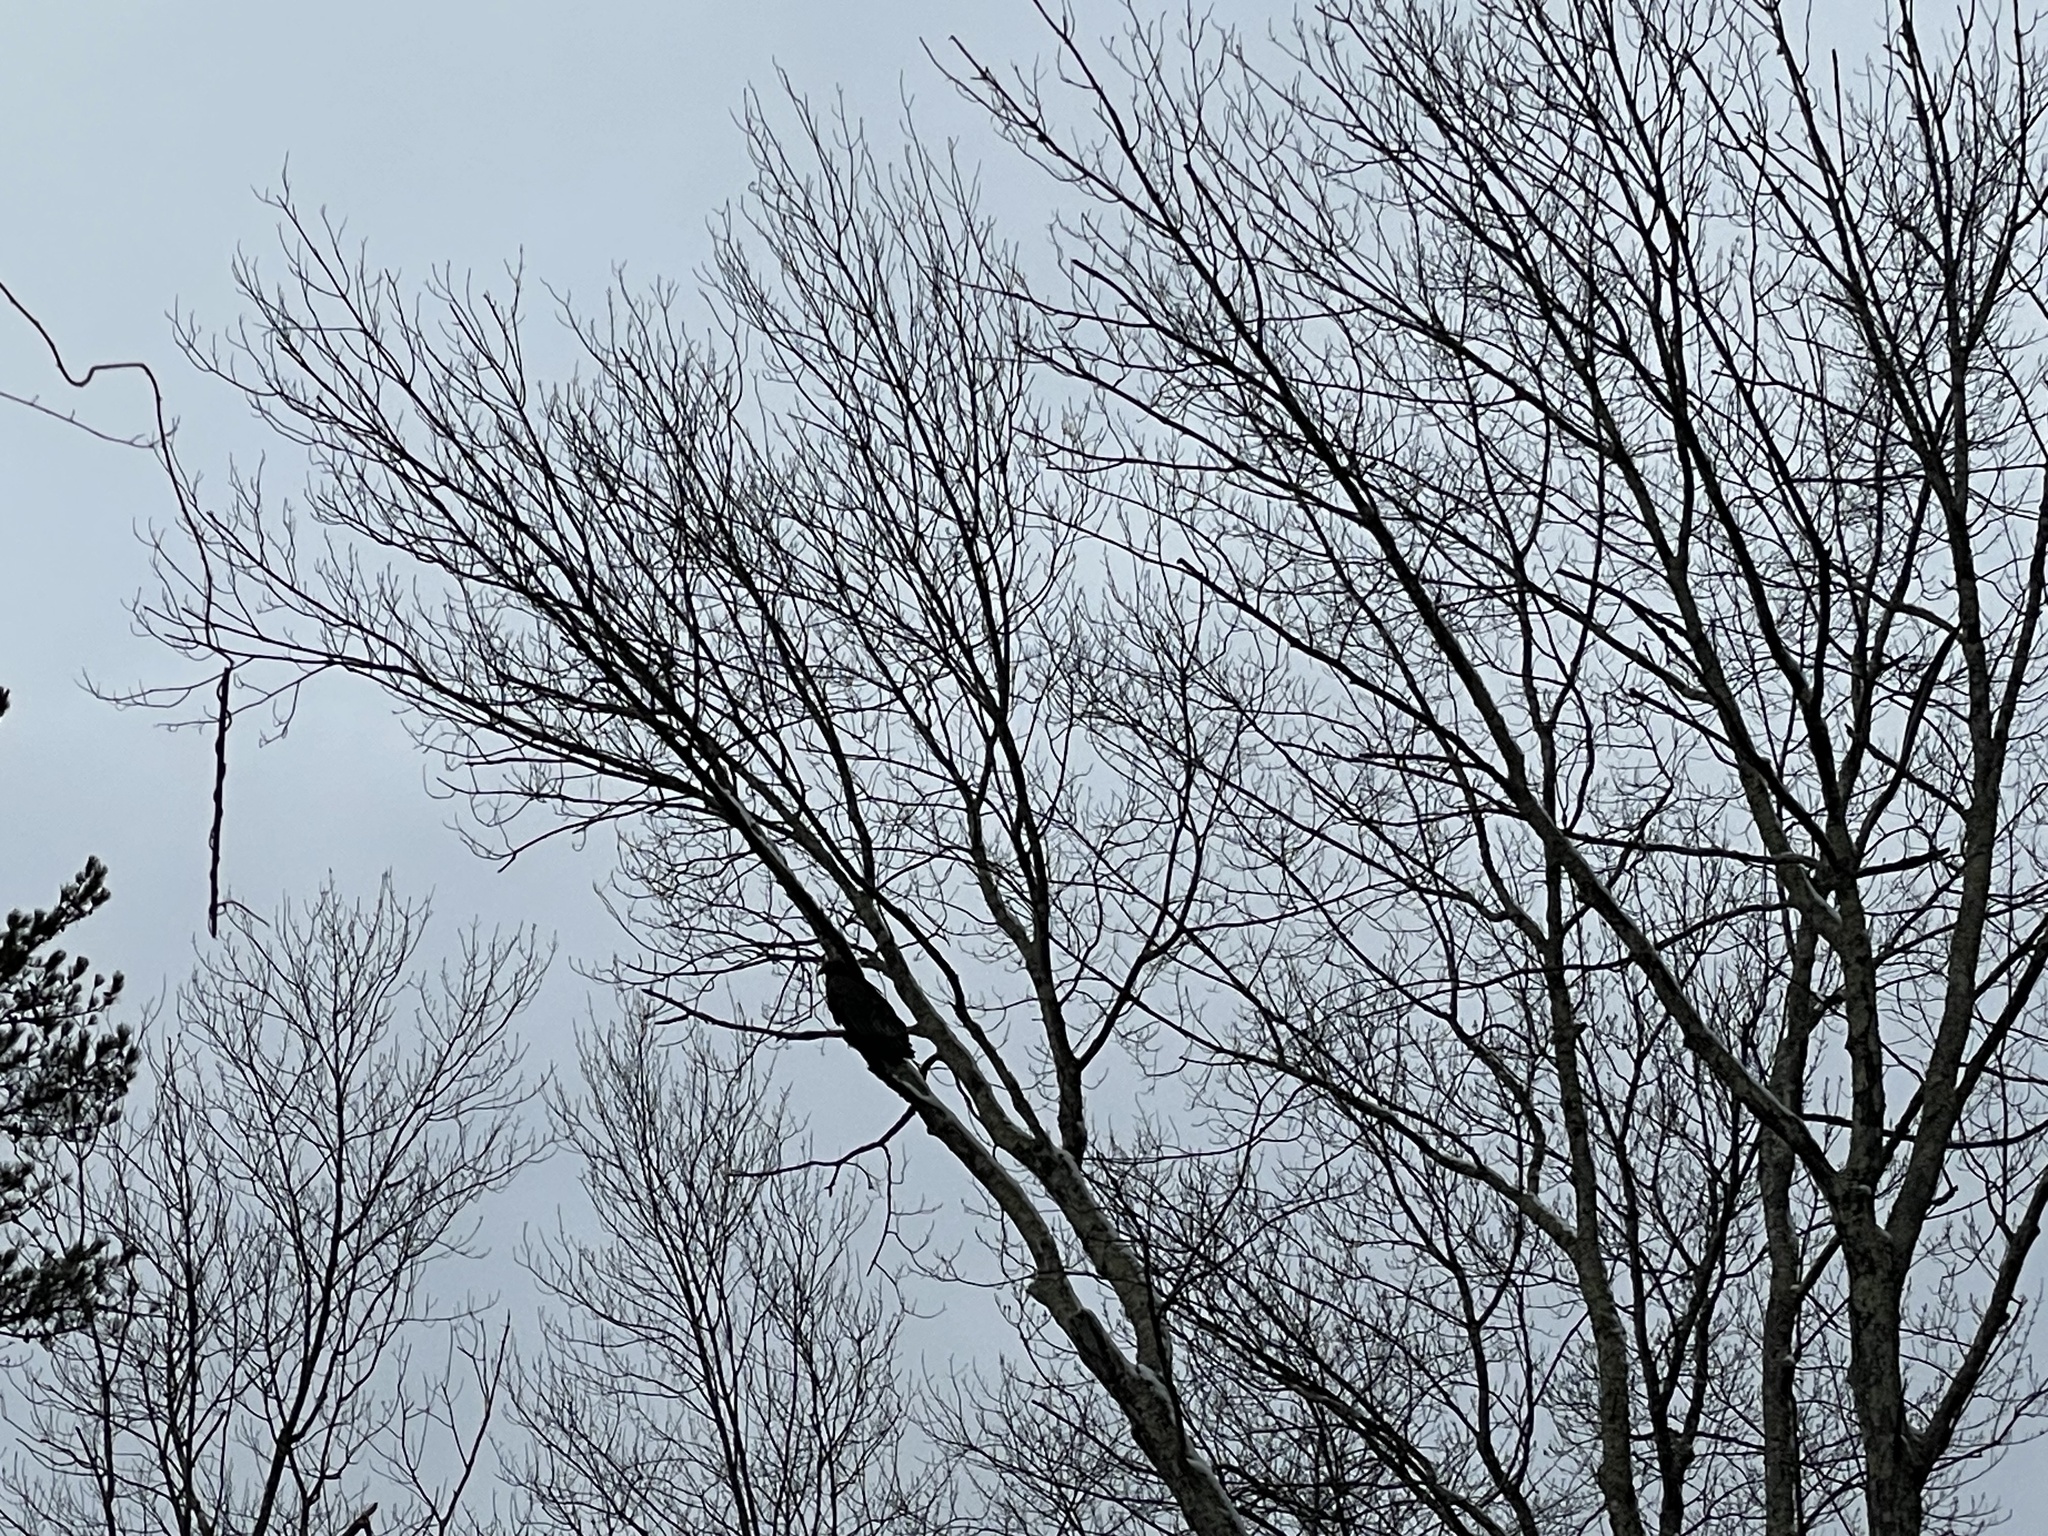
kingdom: Animalia
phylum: Chordata
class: Aves
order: Accipitriformes
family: Cathartidae
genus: Cathartes
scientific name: Cathartes aura
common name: Turkey vulture
